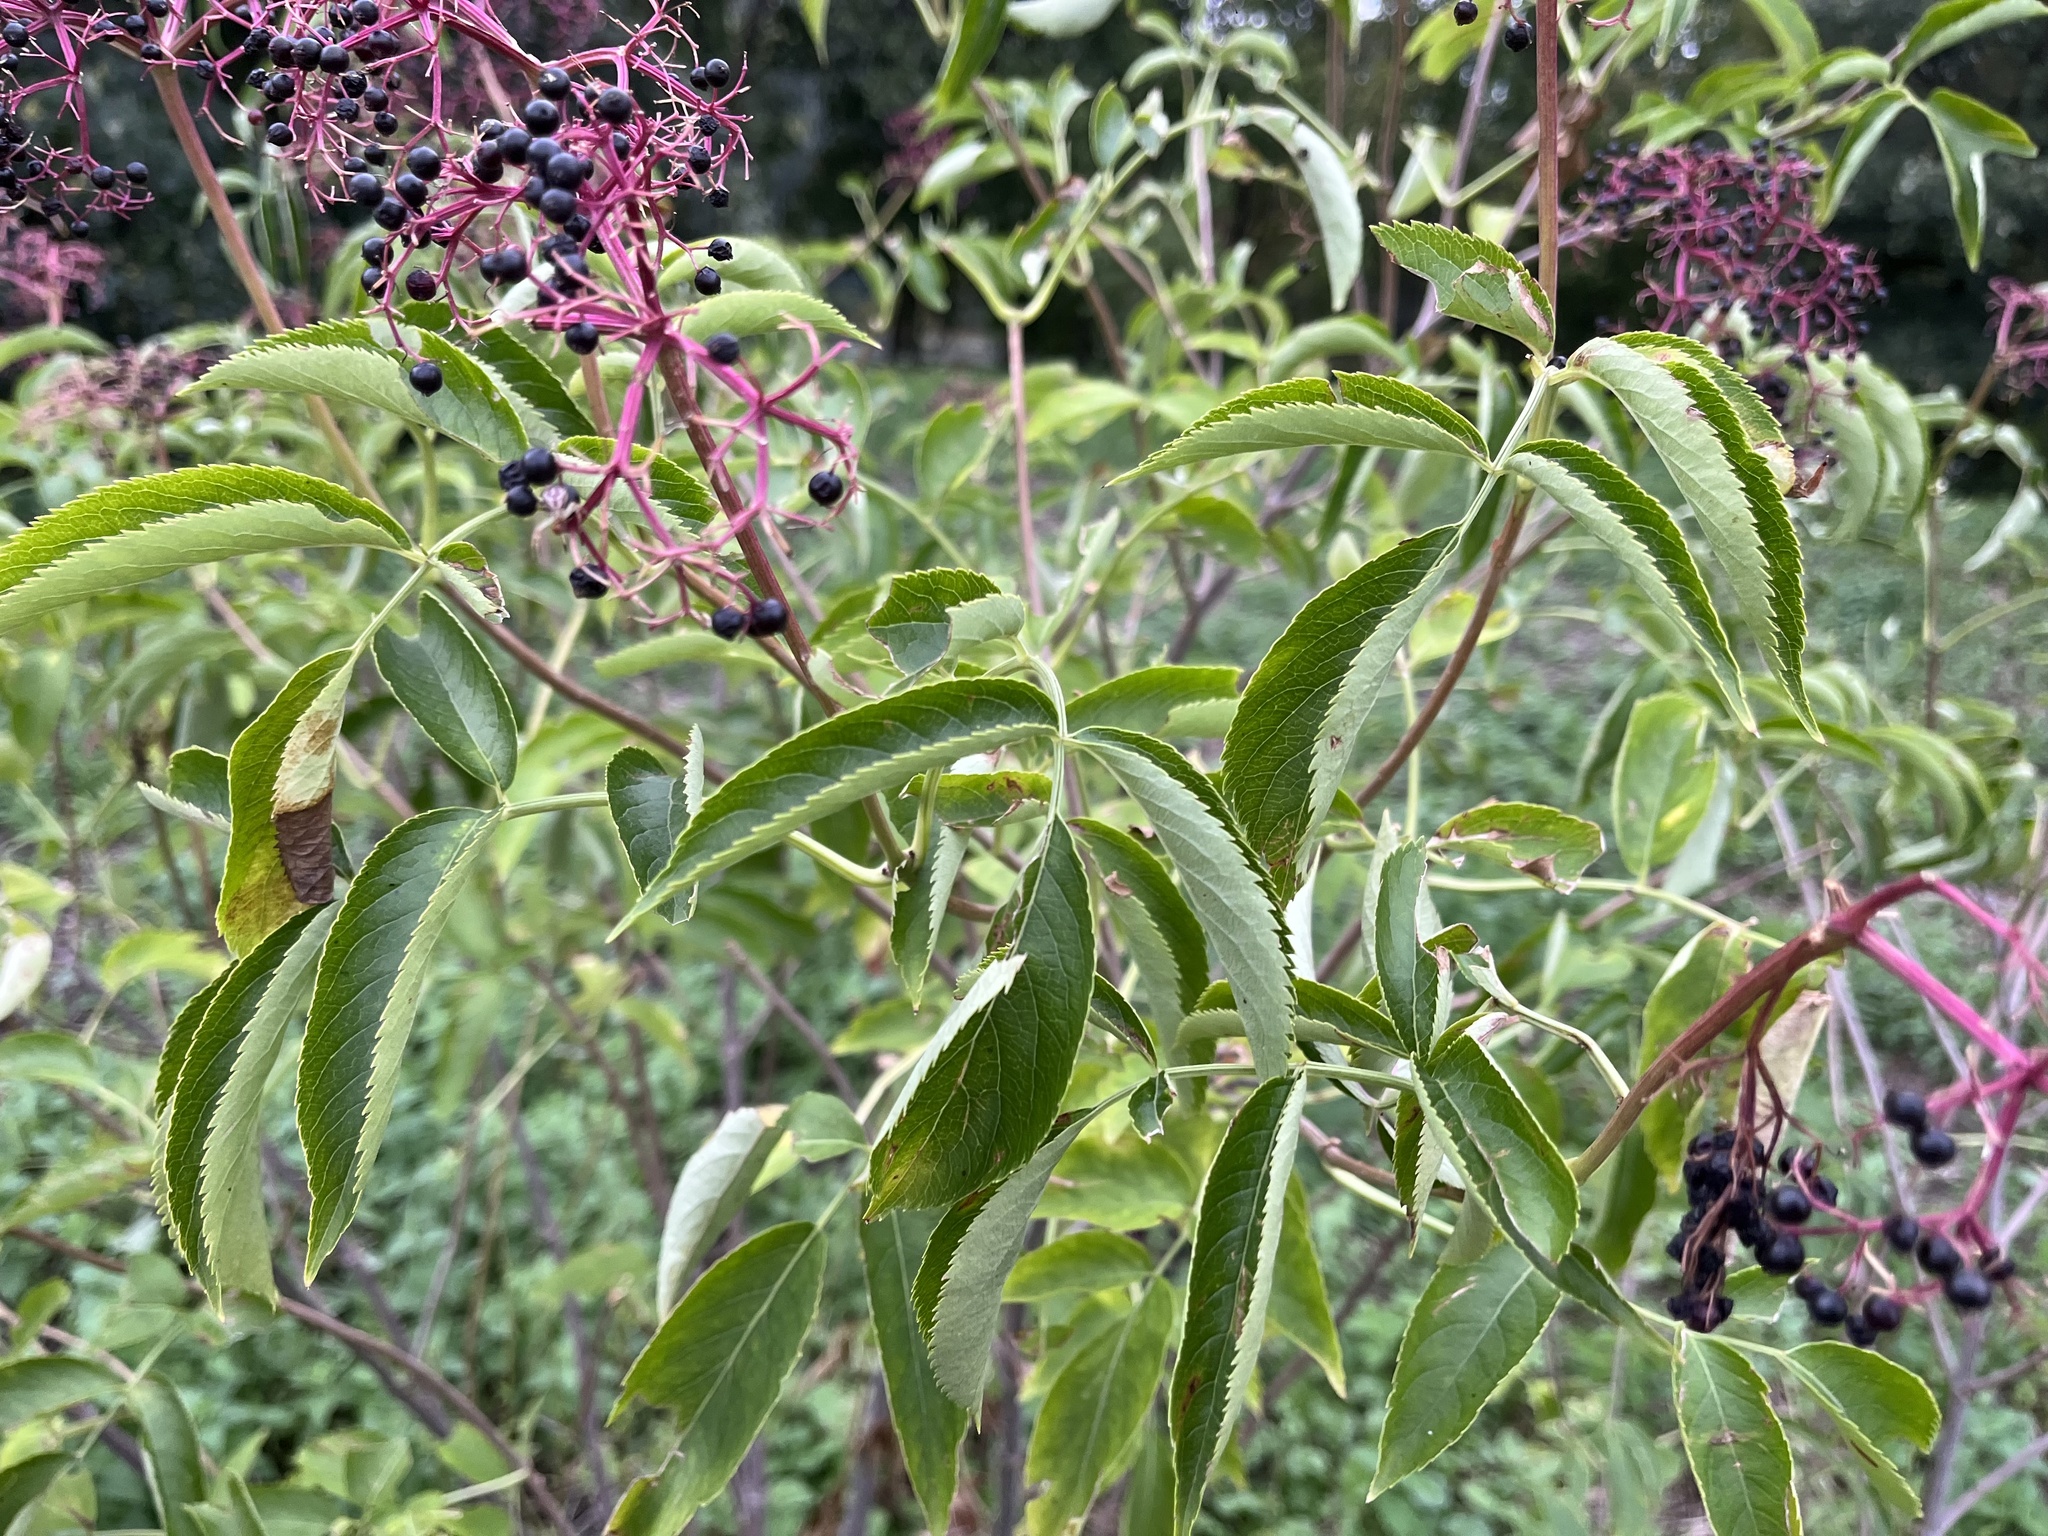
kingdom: Plantae
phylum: Tracheophyta
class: Magnoliopsida
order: Dipsacales
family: Viburnaceae
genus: Sambucus
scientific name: Sambucus canadensis
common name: American elder
